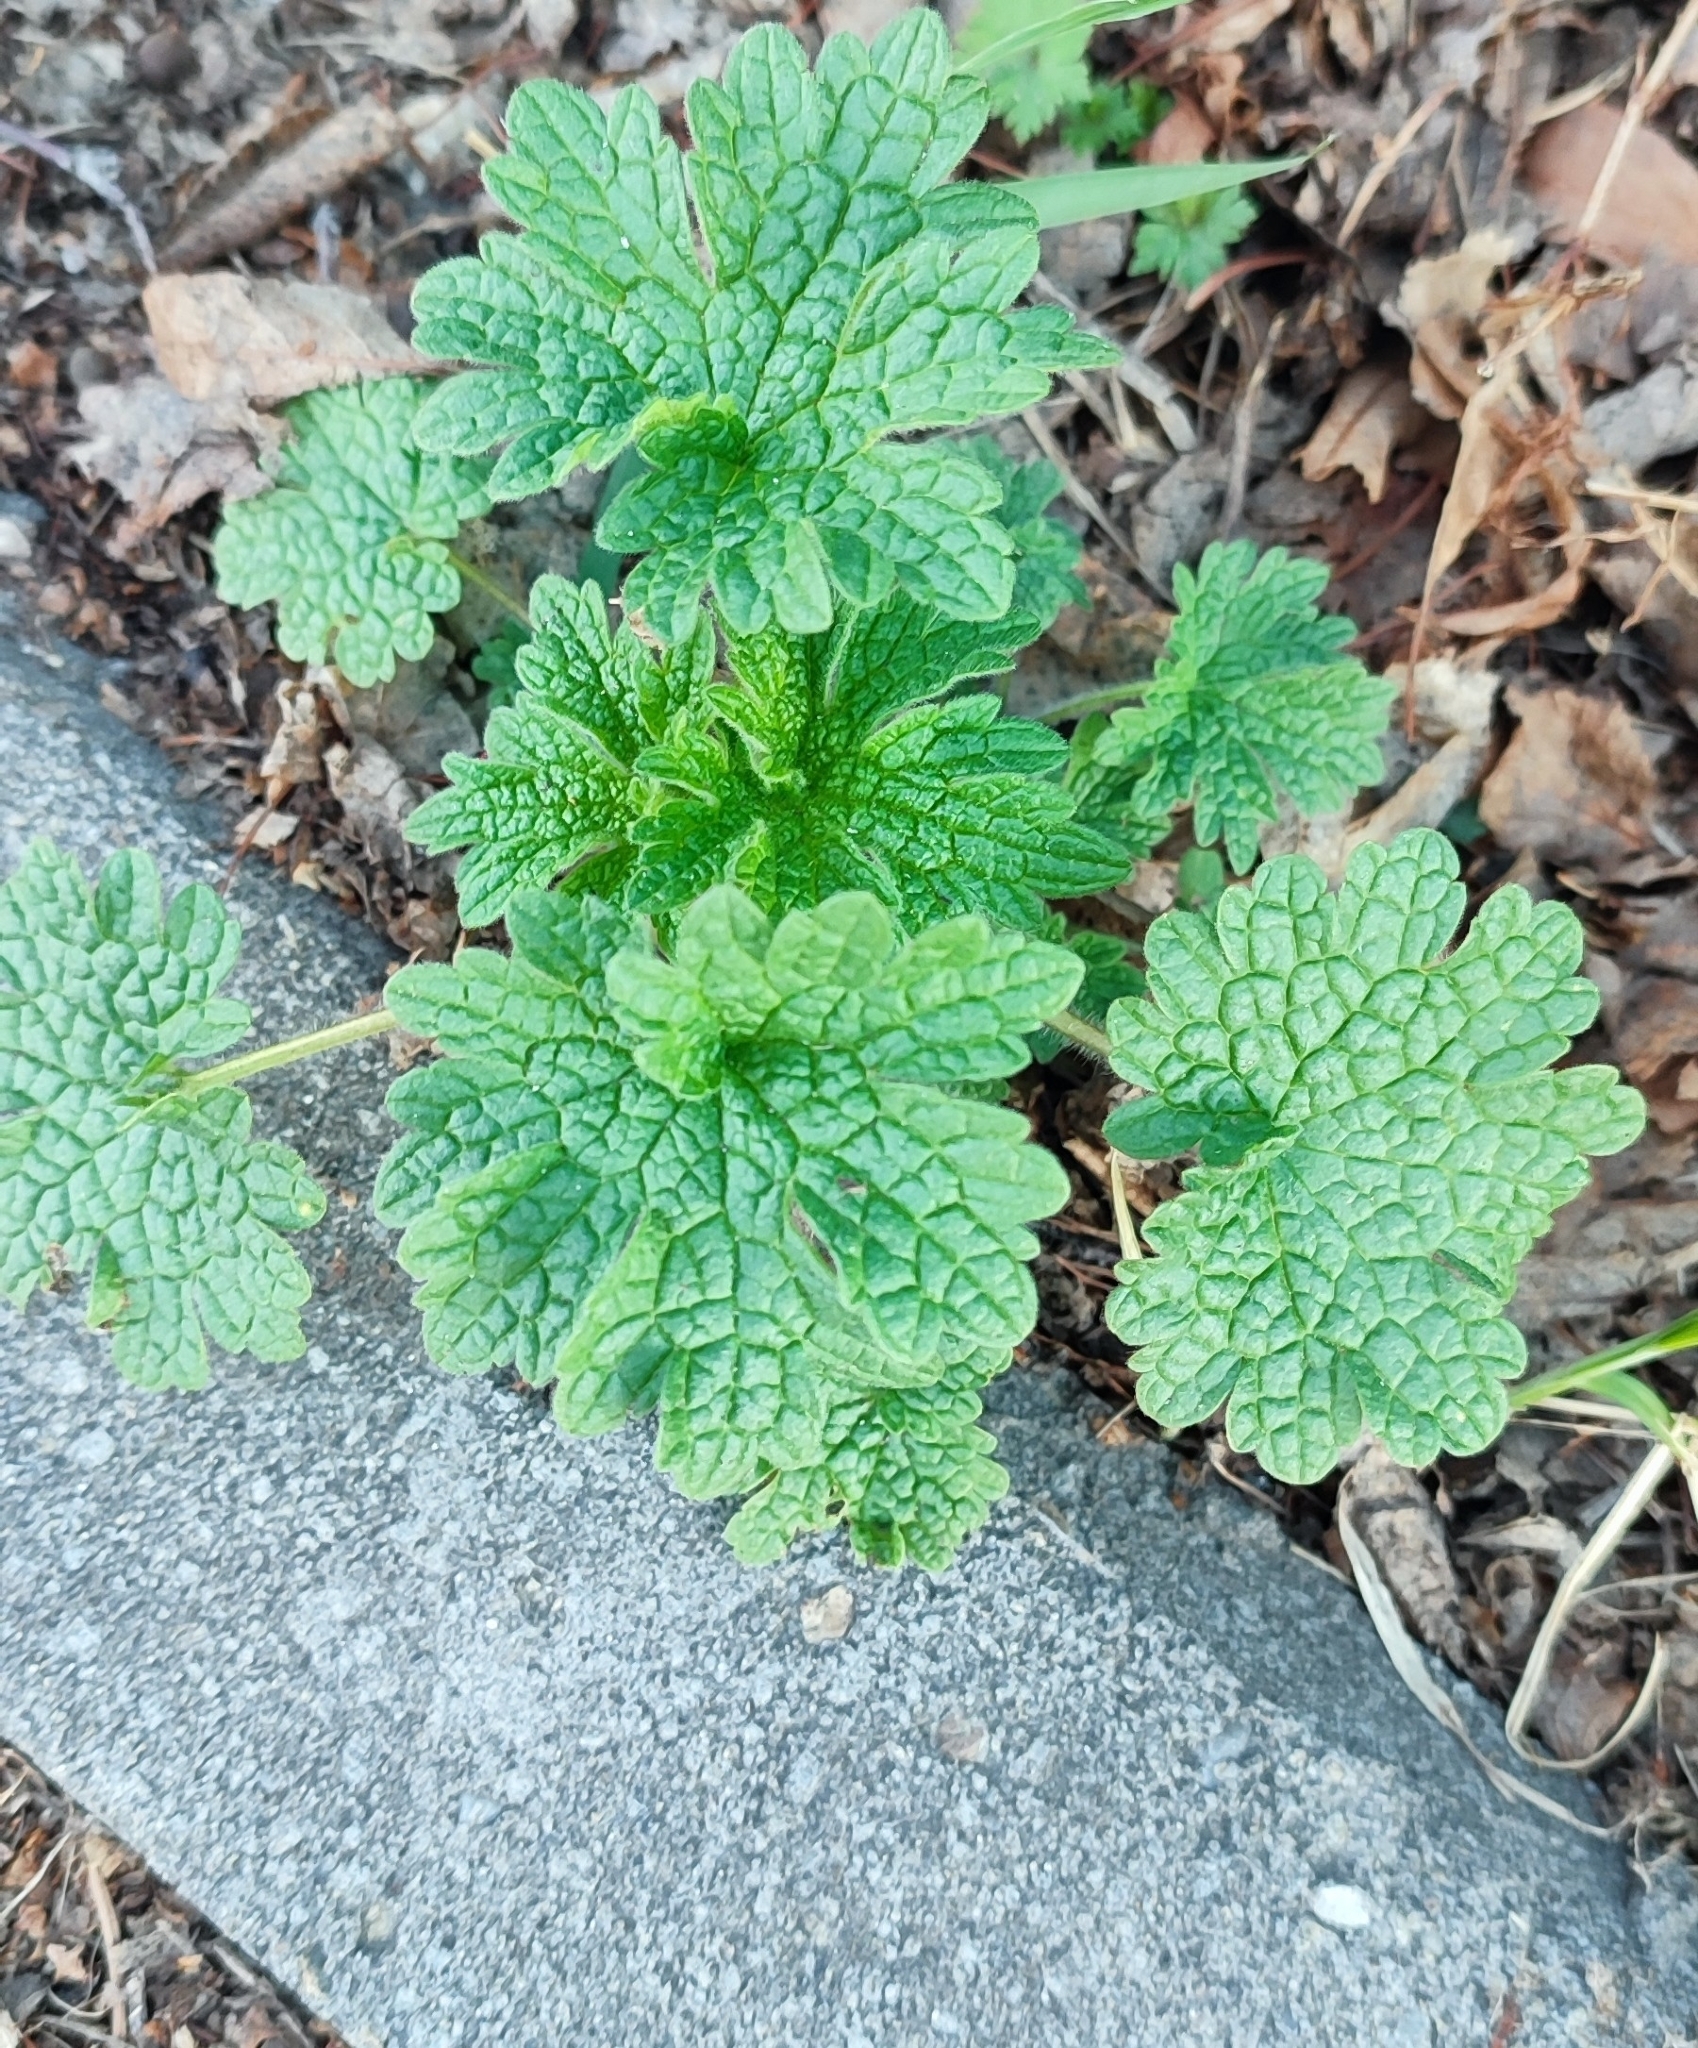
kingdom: Plantae
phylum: Tracheophyta
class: Magnoliopsida
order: Lamiales
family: Lamiaceae
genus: Leonurus
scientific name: Leonurus quinquelobatus
